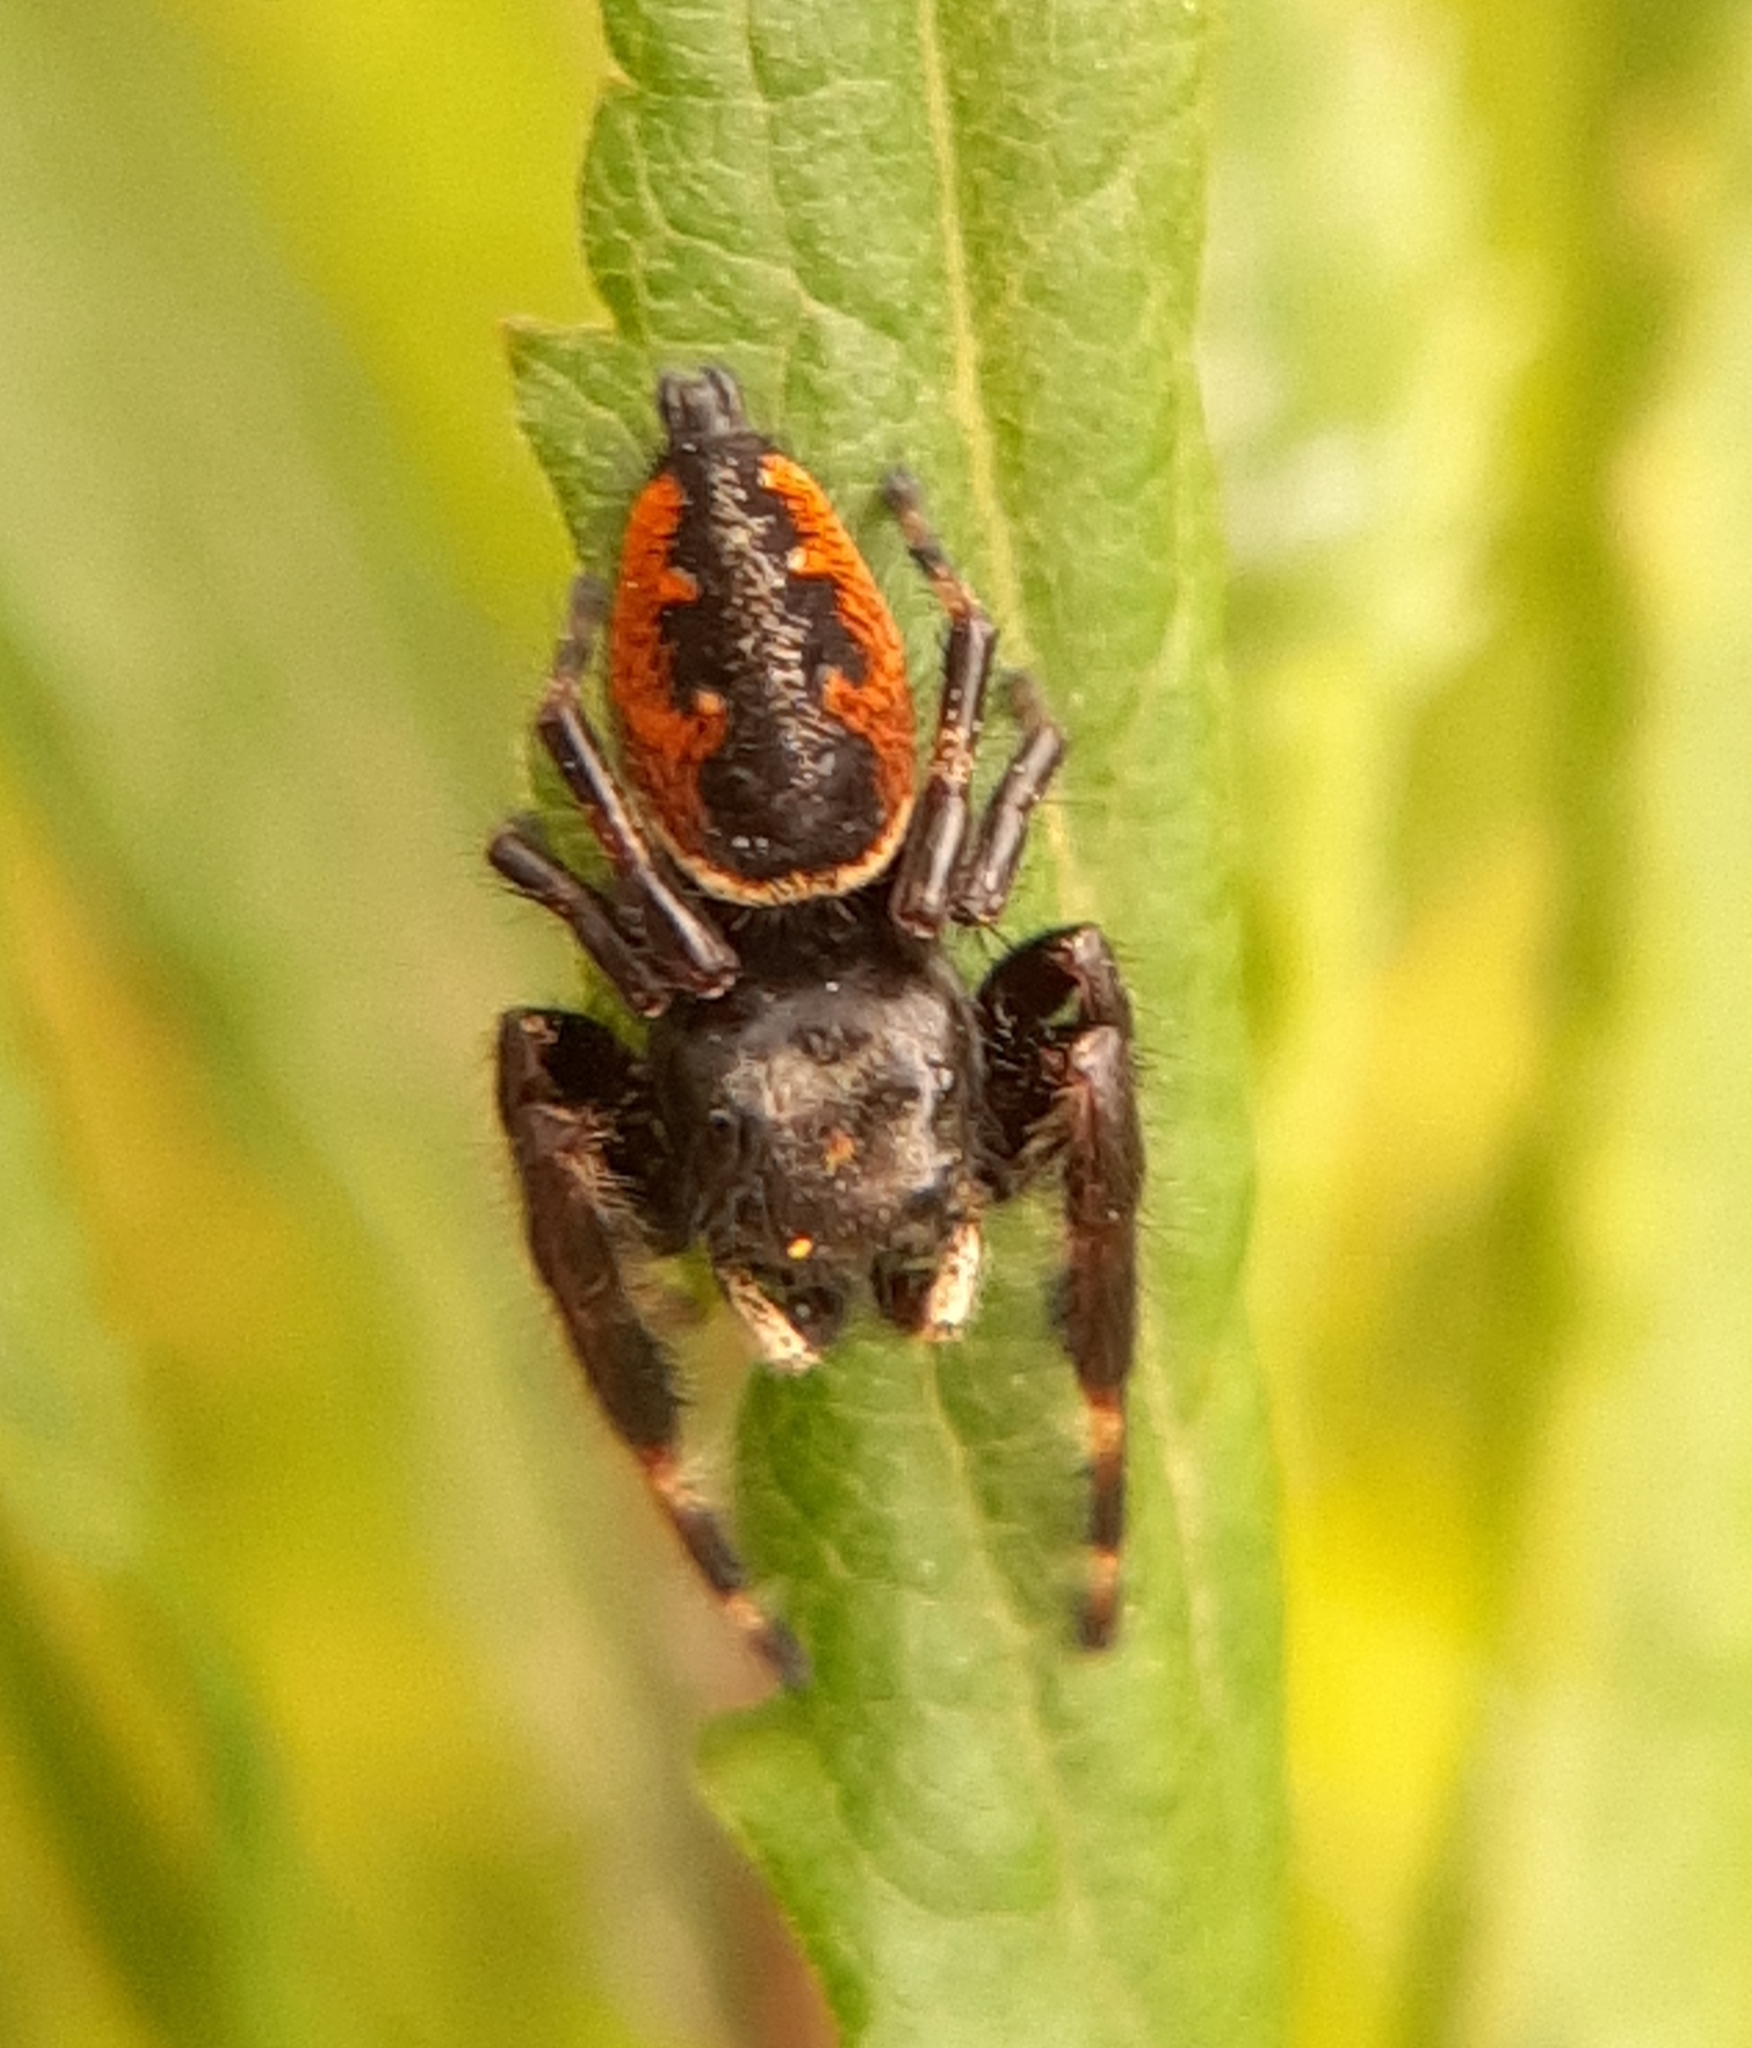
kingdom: Animalia
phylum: Arthropoda
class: Arachnida
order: Araneae
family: Salticidae
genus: Phidippus
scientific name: Phidippus clarus
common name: Brilliant jumping spider
